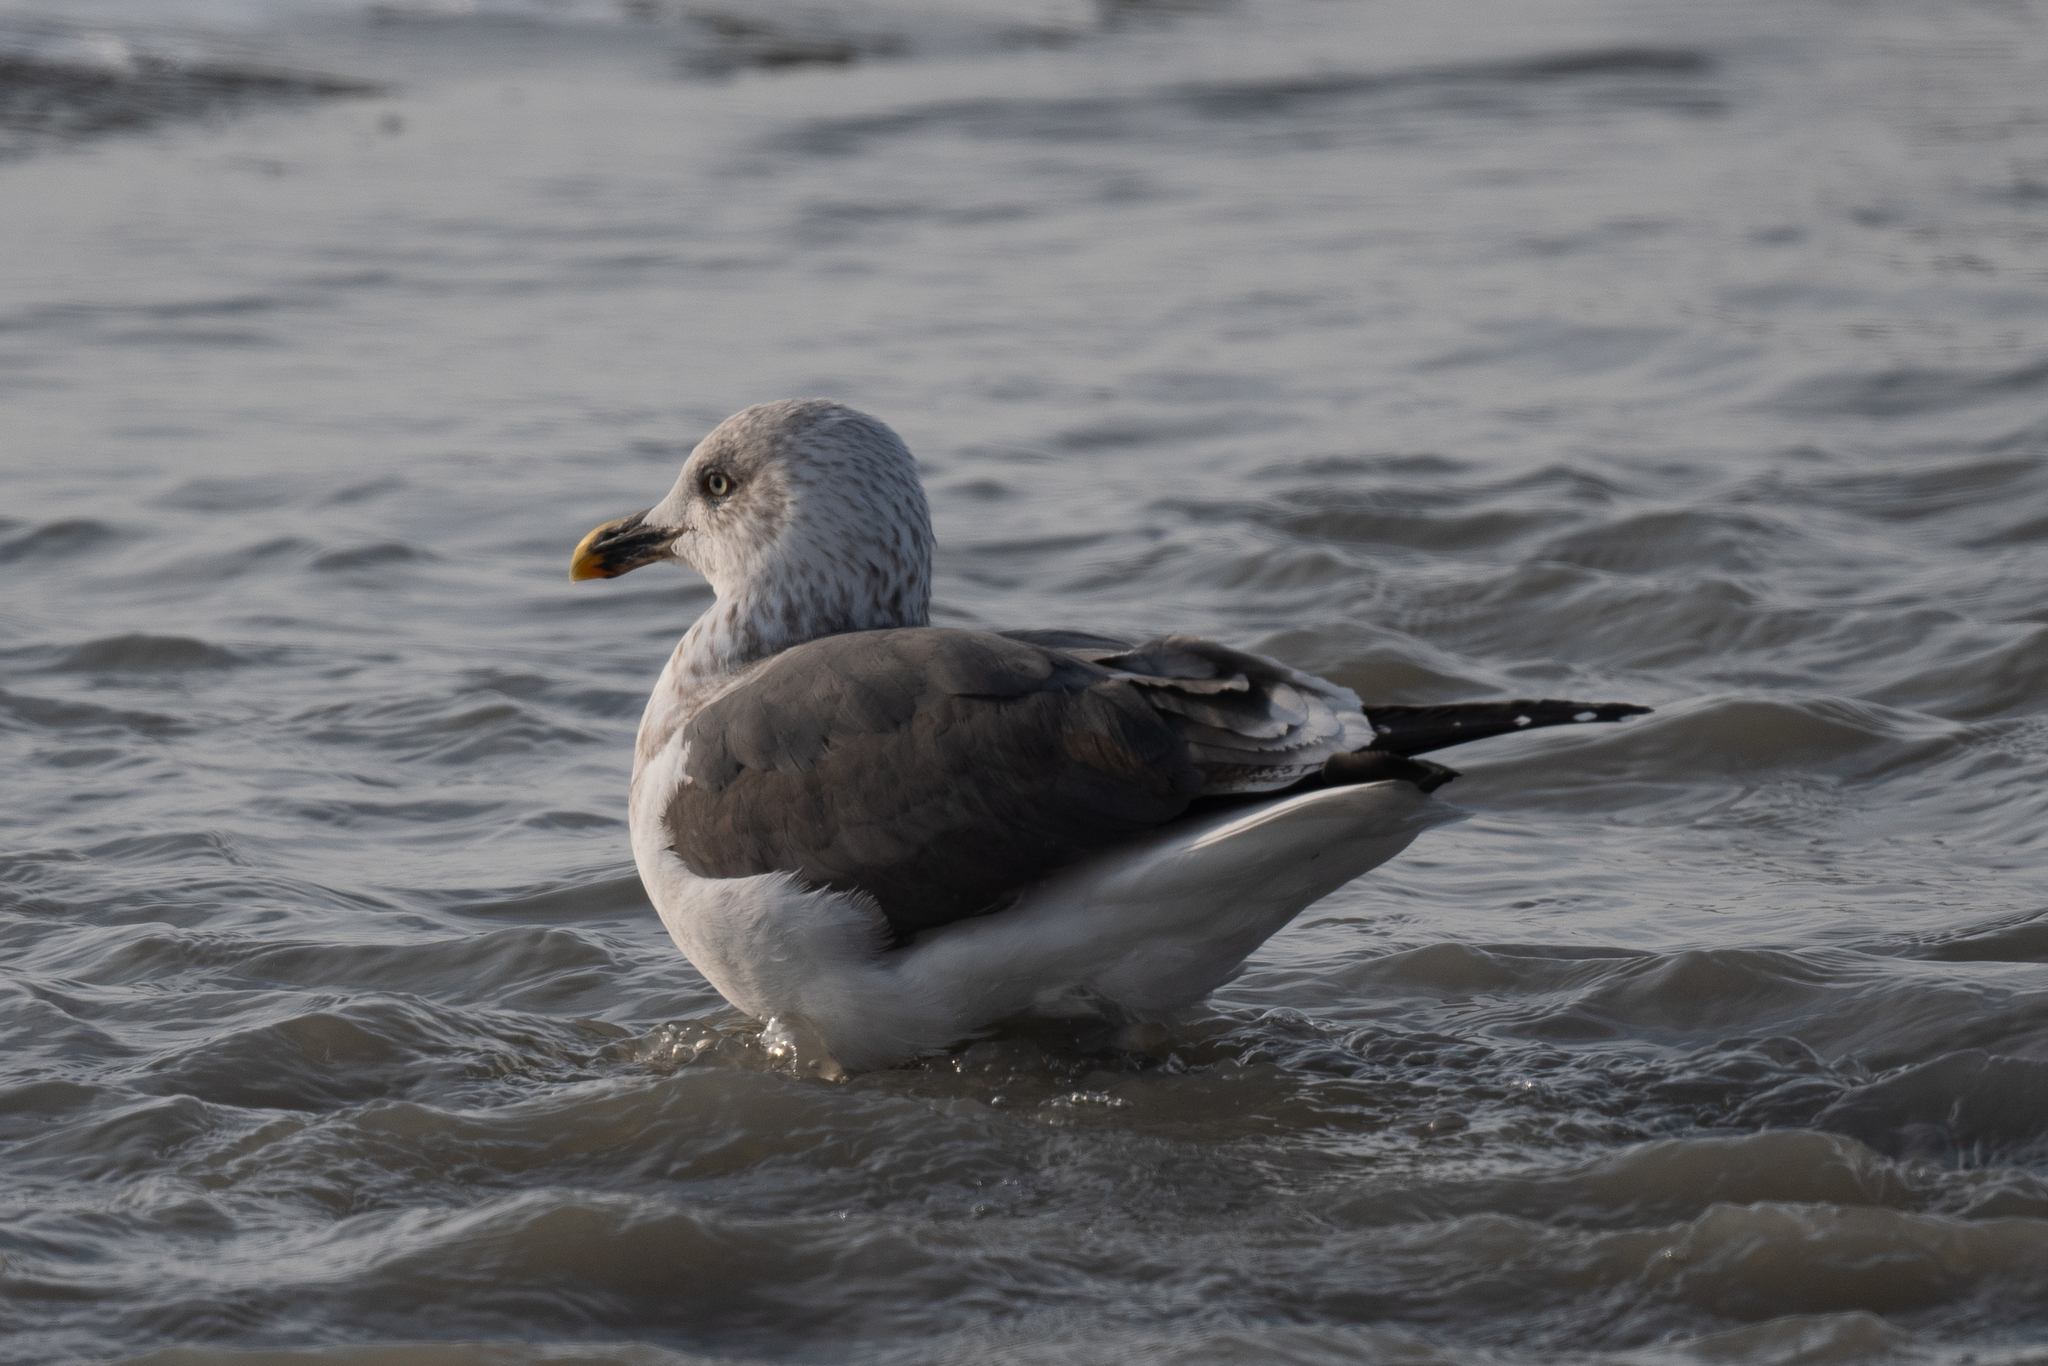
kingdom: Animalia
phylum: Chordata
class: Aves
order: Charadriiformes
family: Laridae
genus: Larus
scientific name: Larus fuscus
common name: Lesser black-backed gull
